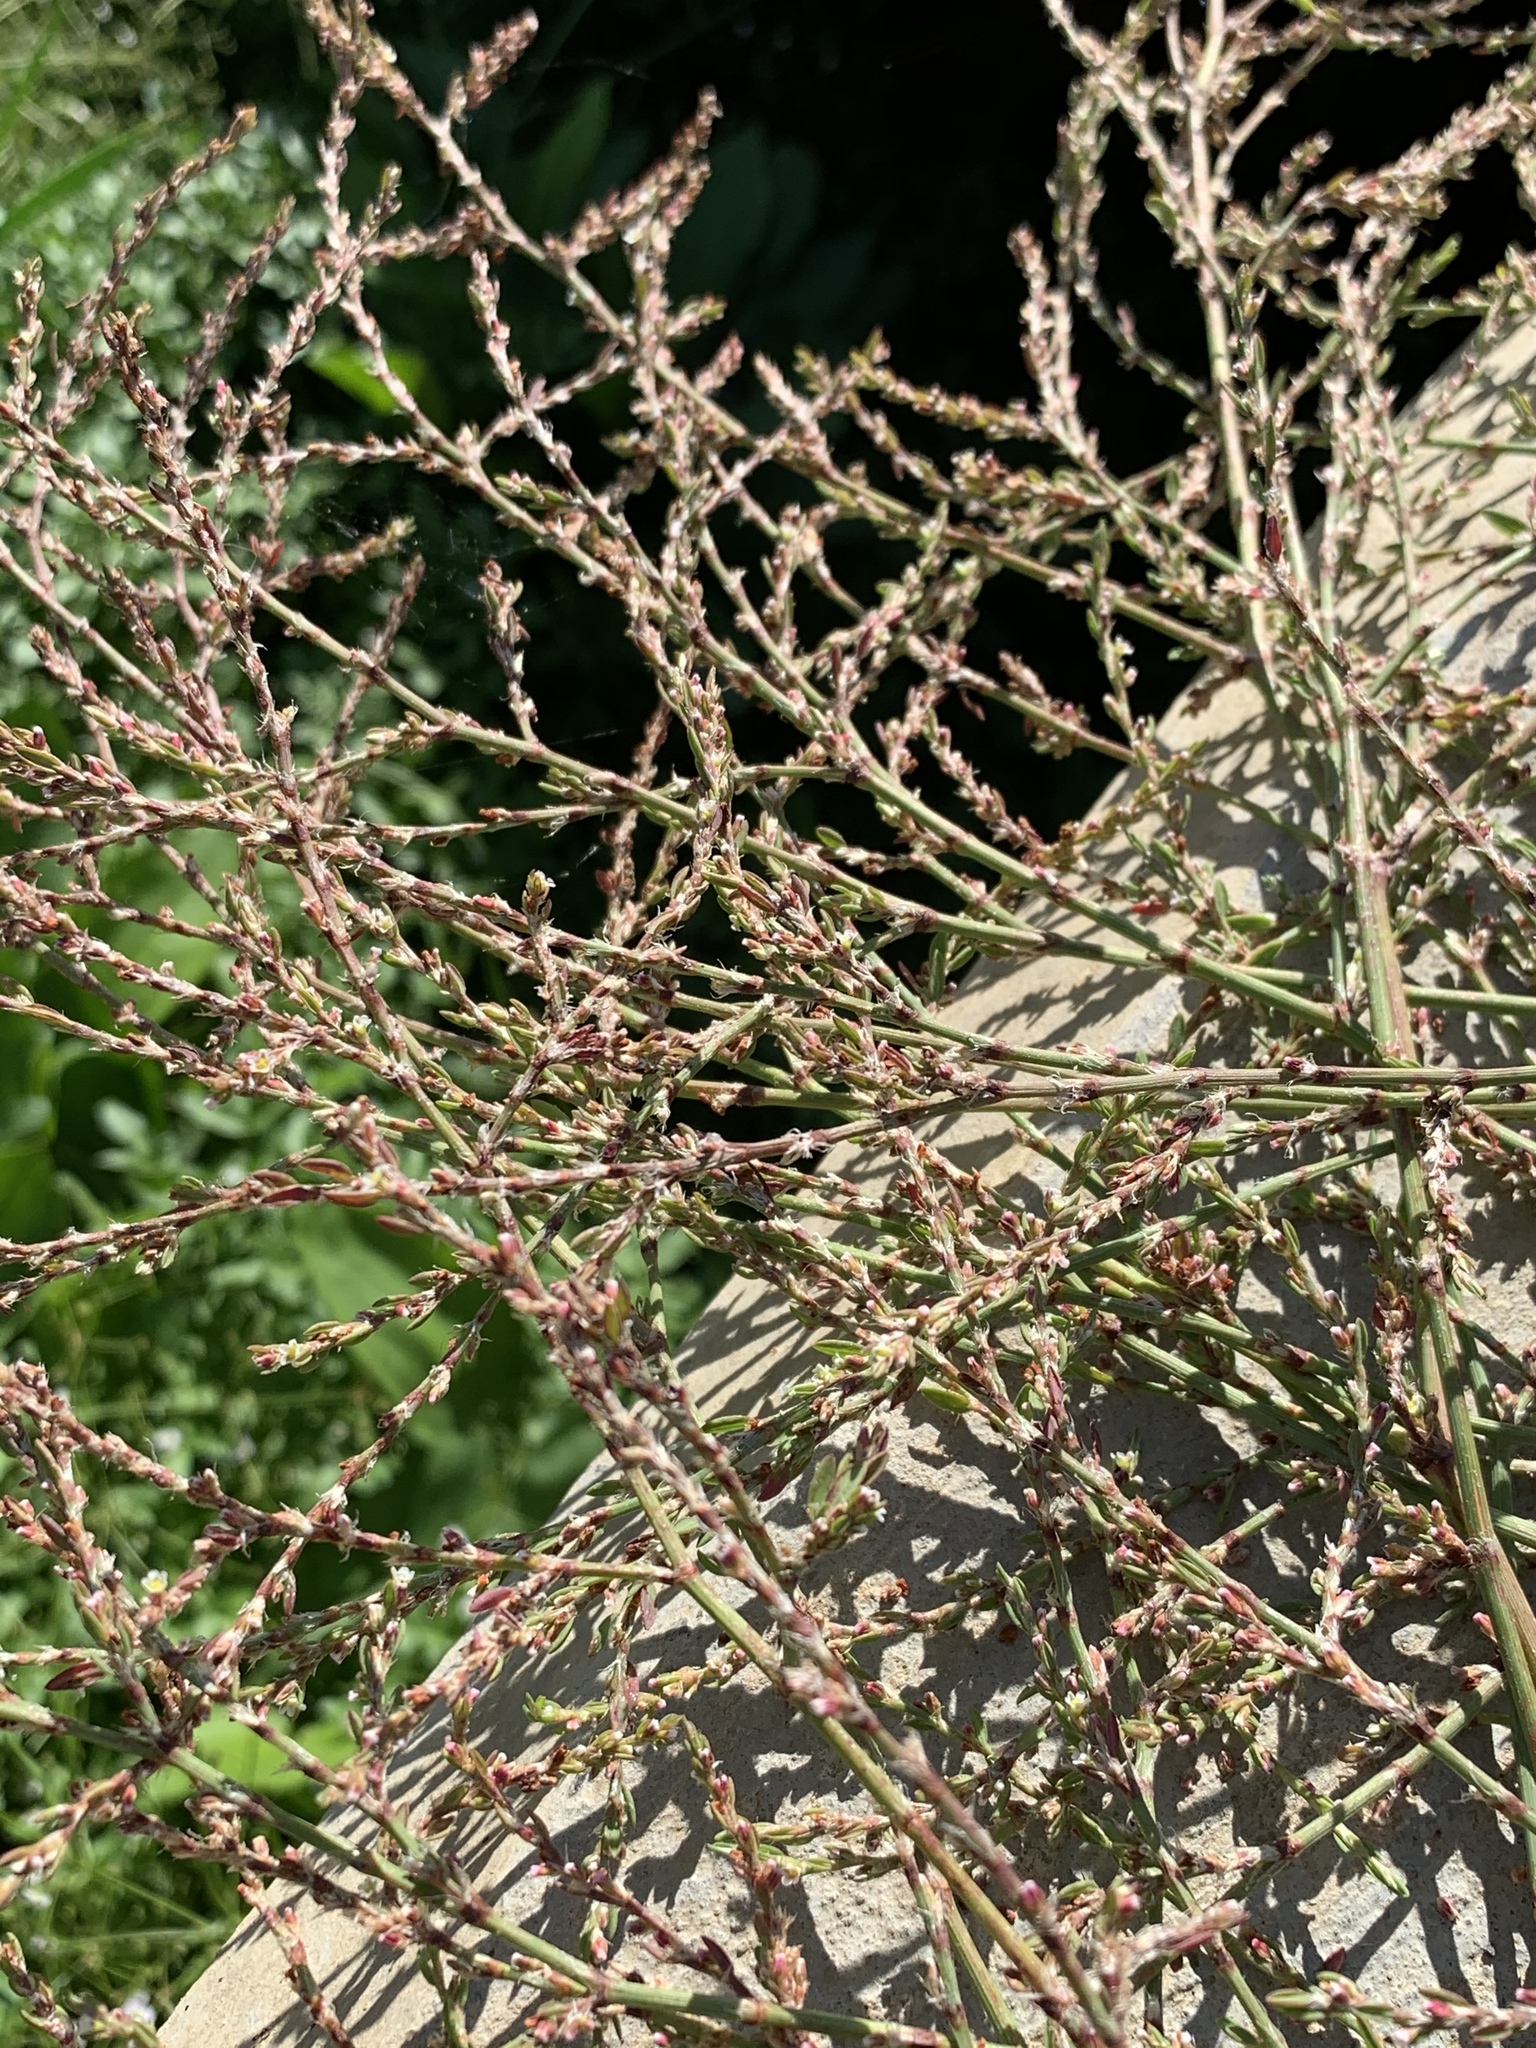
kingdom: Plantae
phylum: Tracheophyta
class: Magnoliopsida
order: Caryophyllales
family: Polygonaceae
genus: Polygonum
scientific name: Polygonum aviculare
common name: Prostrate knotweed
